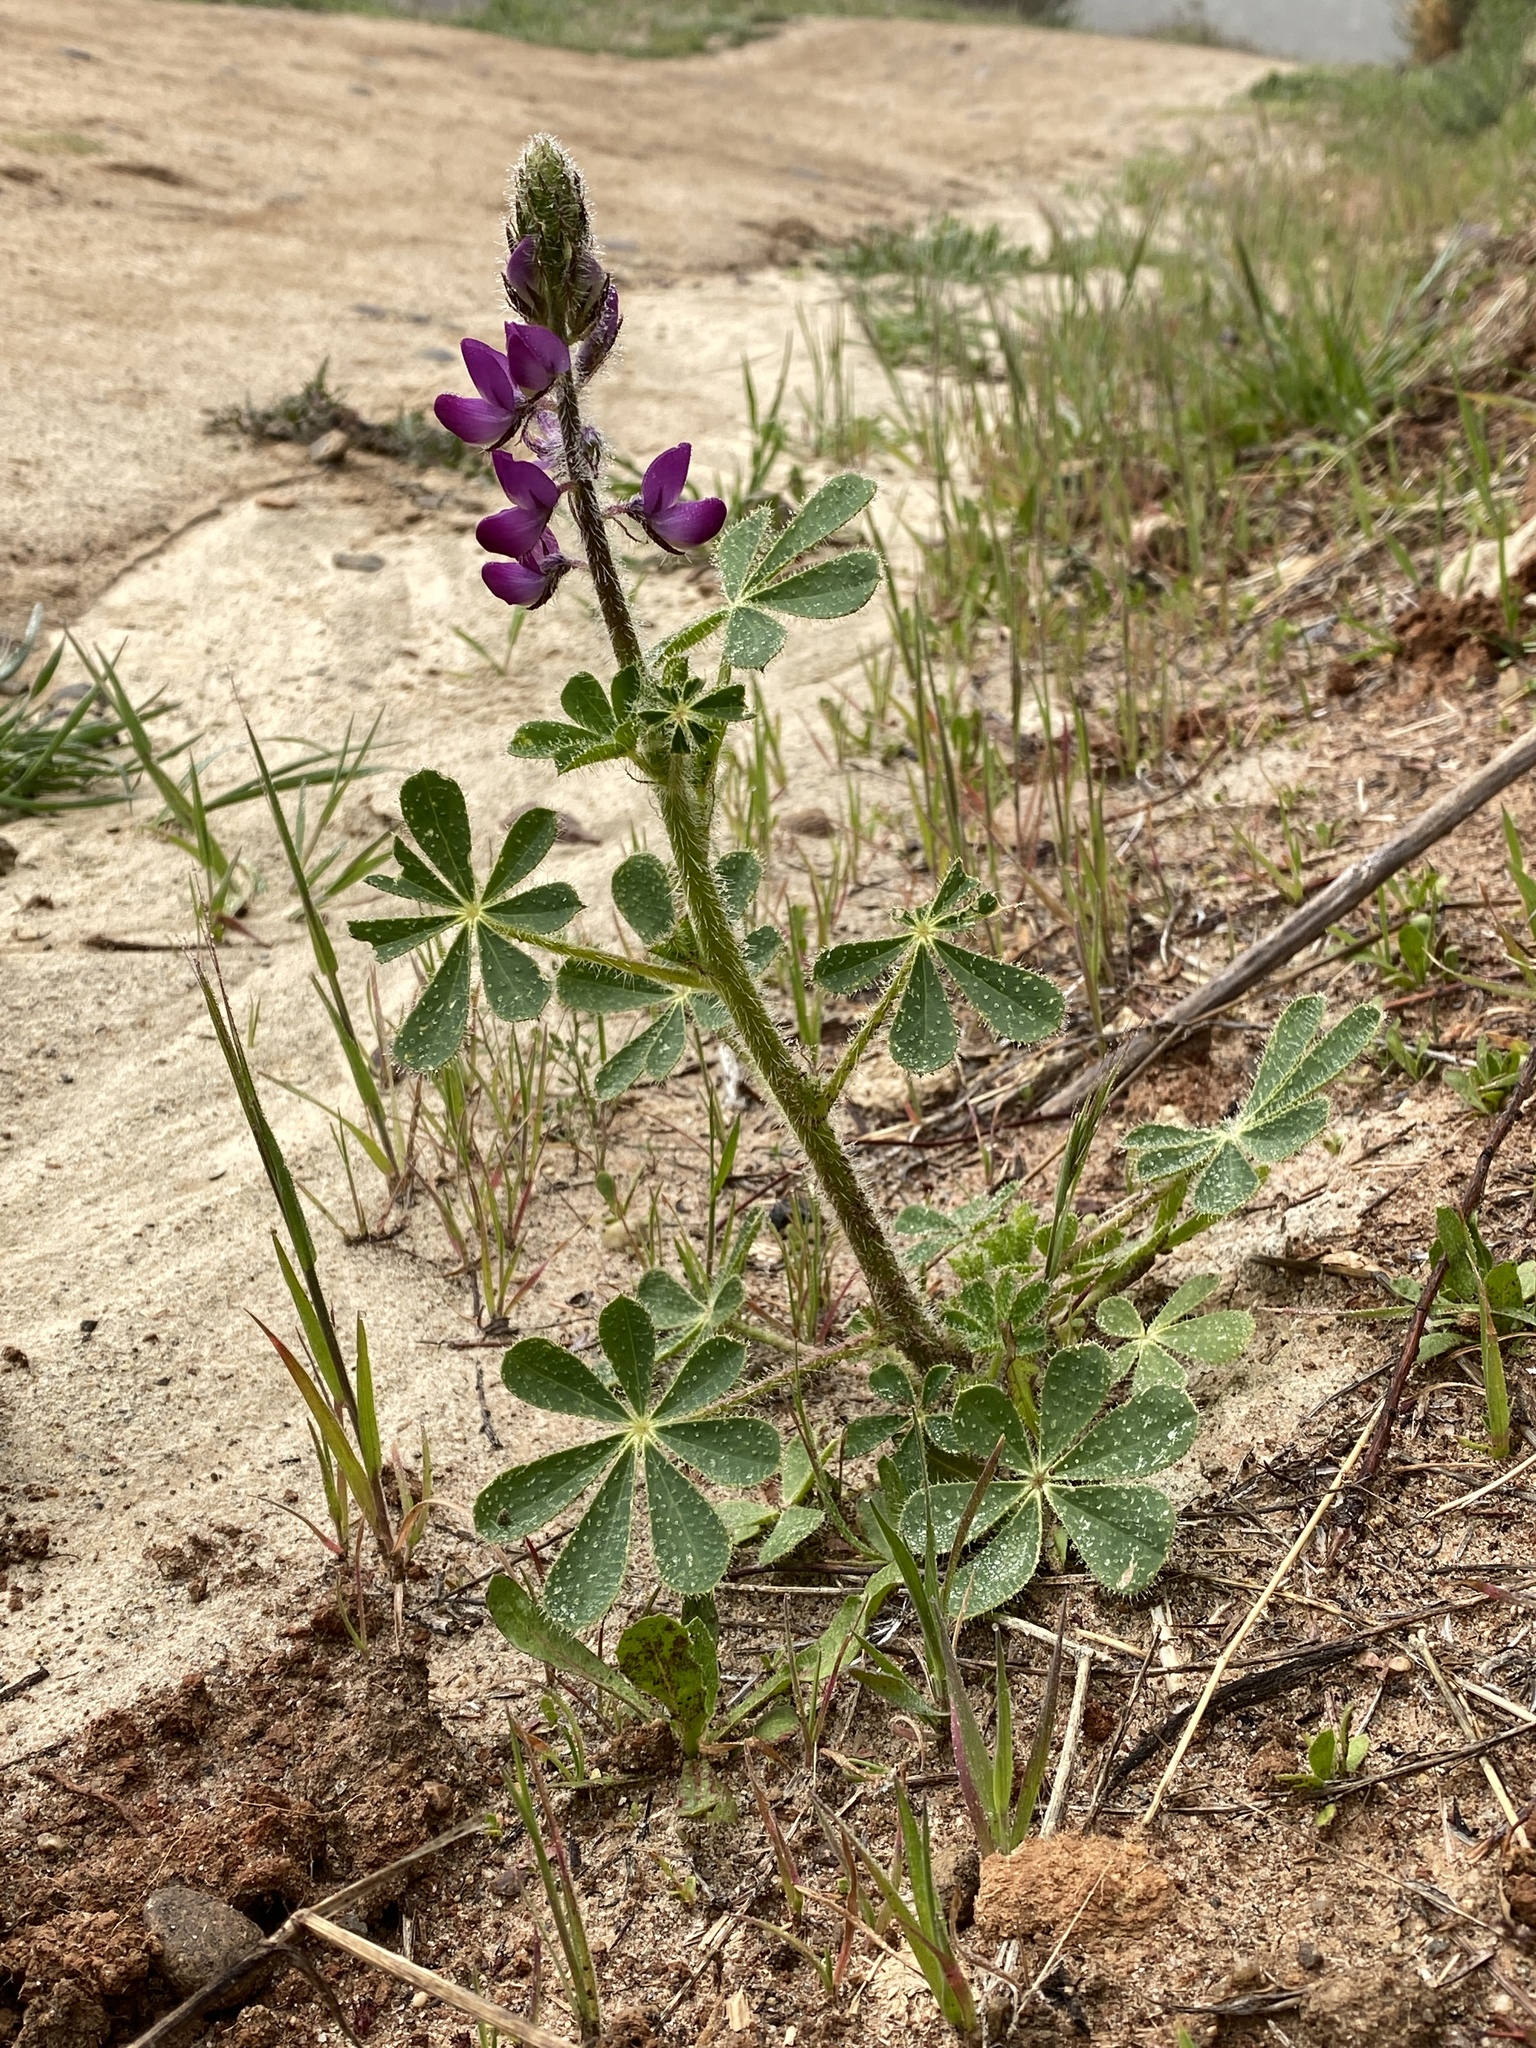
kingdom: Plantae
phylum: Tracheophyta
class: Magnoliopsida
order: Fabales
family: Fabaceae
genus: Lupinus
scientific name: Lupinus hirsutissimus
